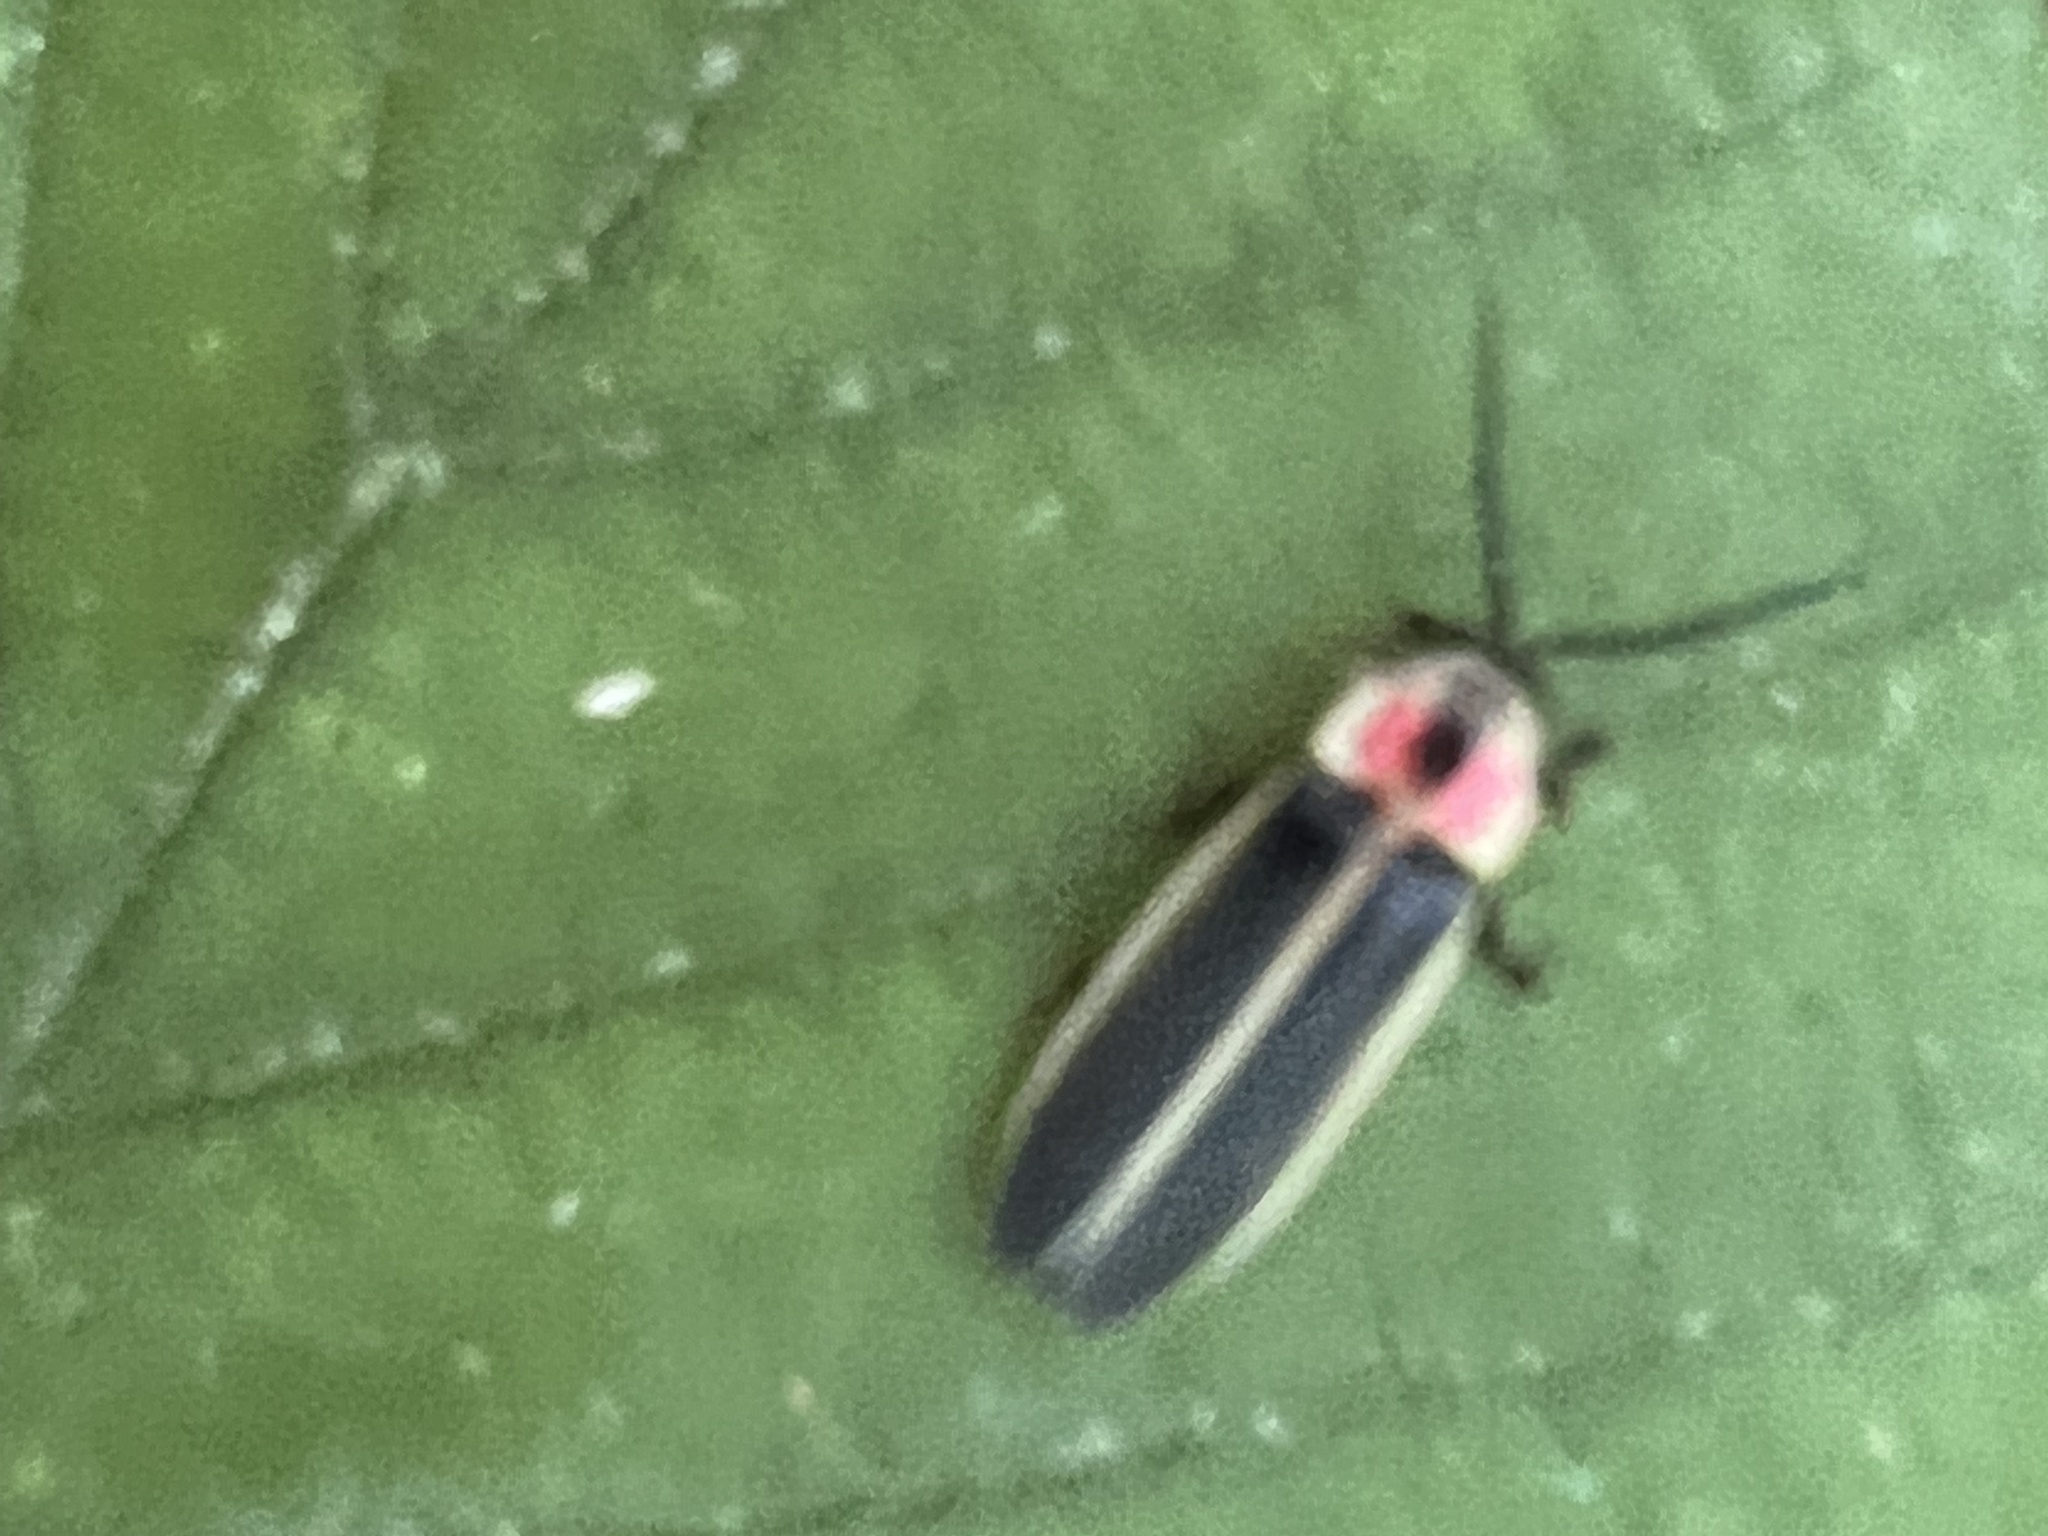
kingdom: Animalia
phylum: Arthropoda
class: Insecta
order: Coleoptera
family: Lampyridae
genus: Photinus
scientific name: Photinus pyralis
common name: Big dipper firefly
